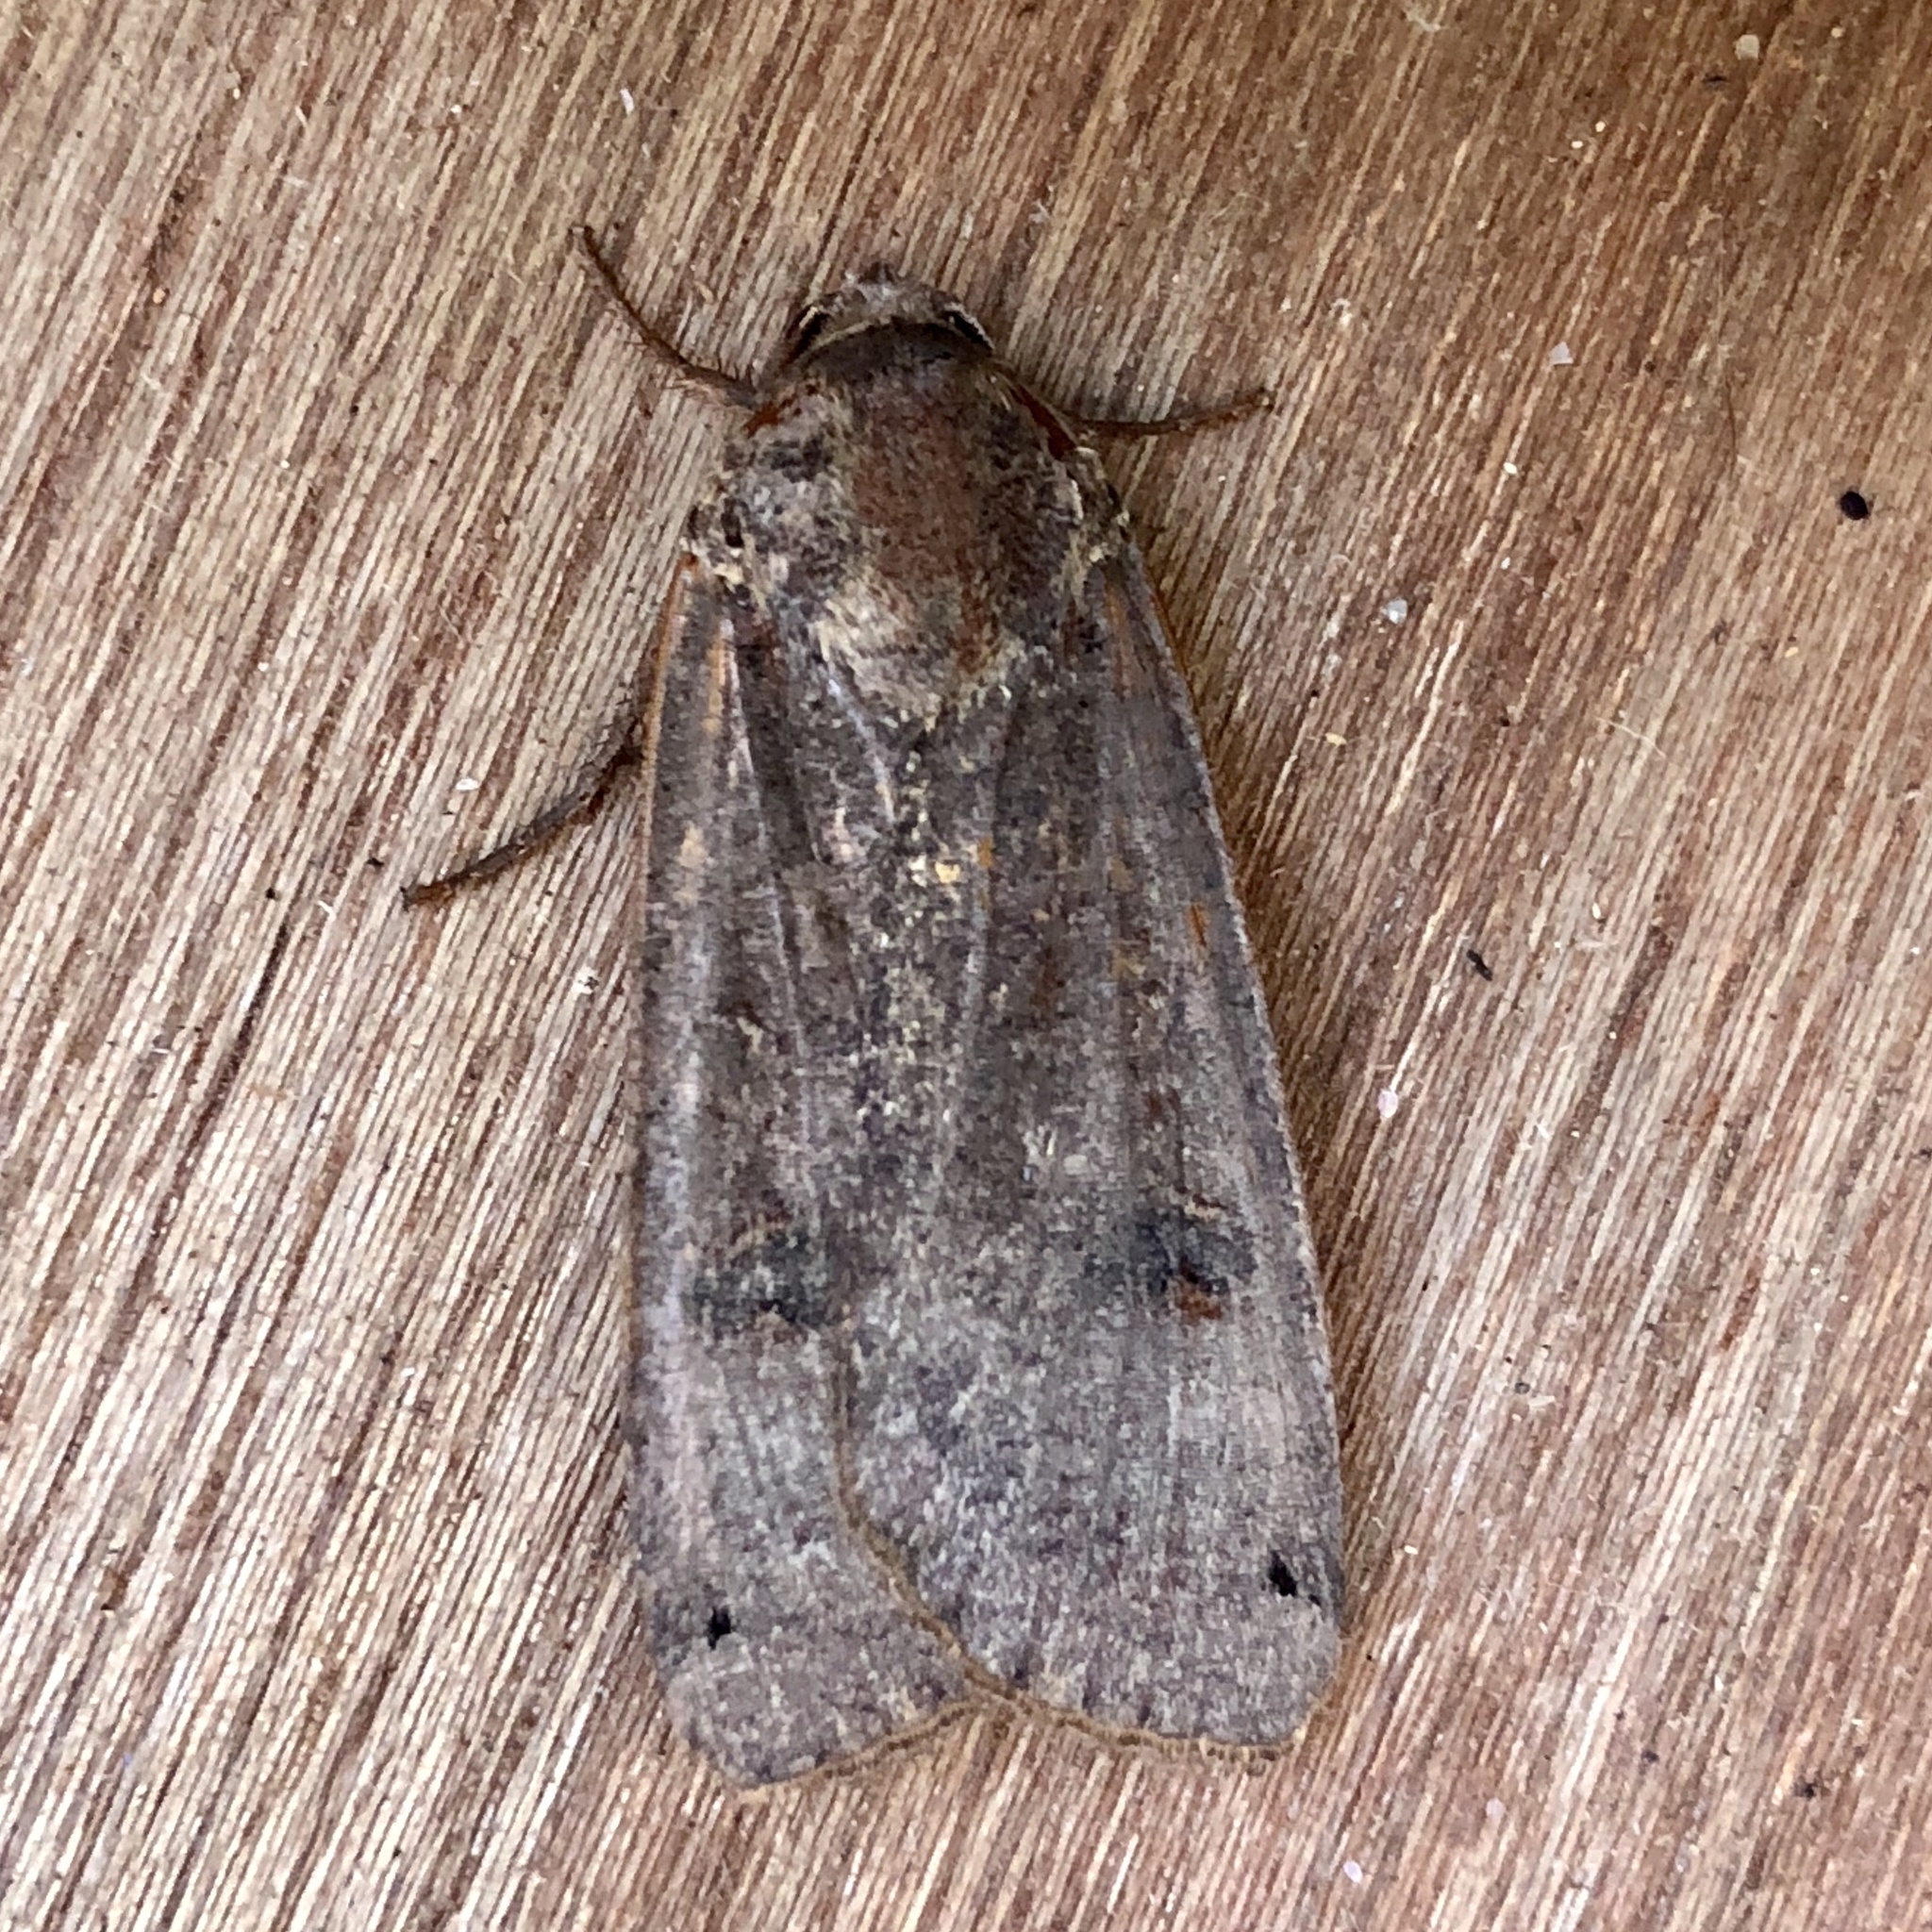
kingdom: Animalia
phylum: Arthropoda
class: Insecta
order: Lepidoptera
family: Noctuidae
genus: Noctua
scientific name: Noctua pronuba
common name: Large yellow underwing
